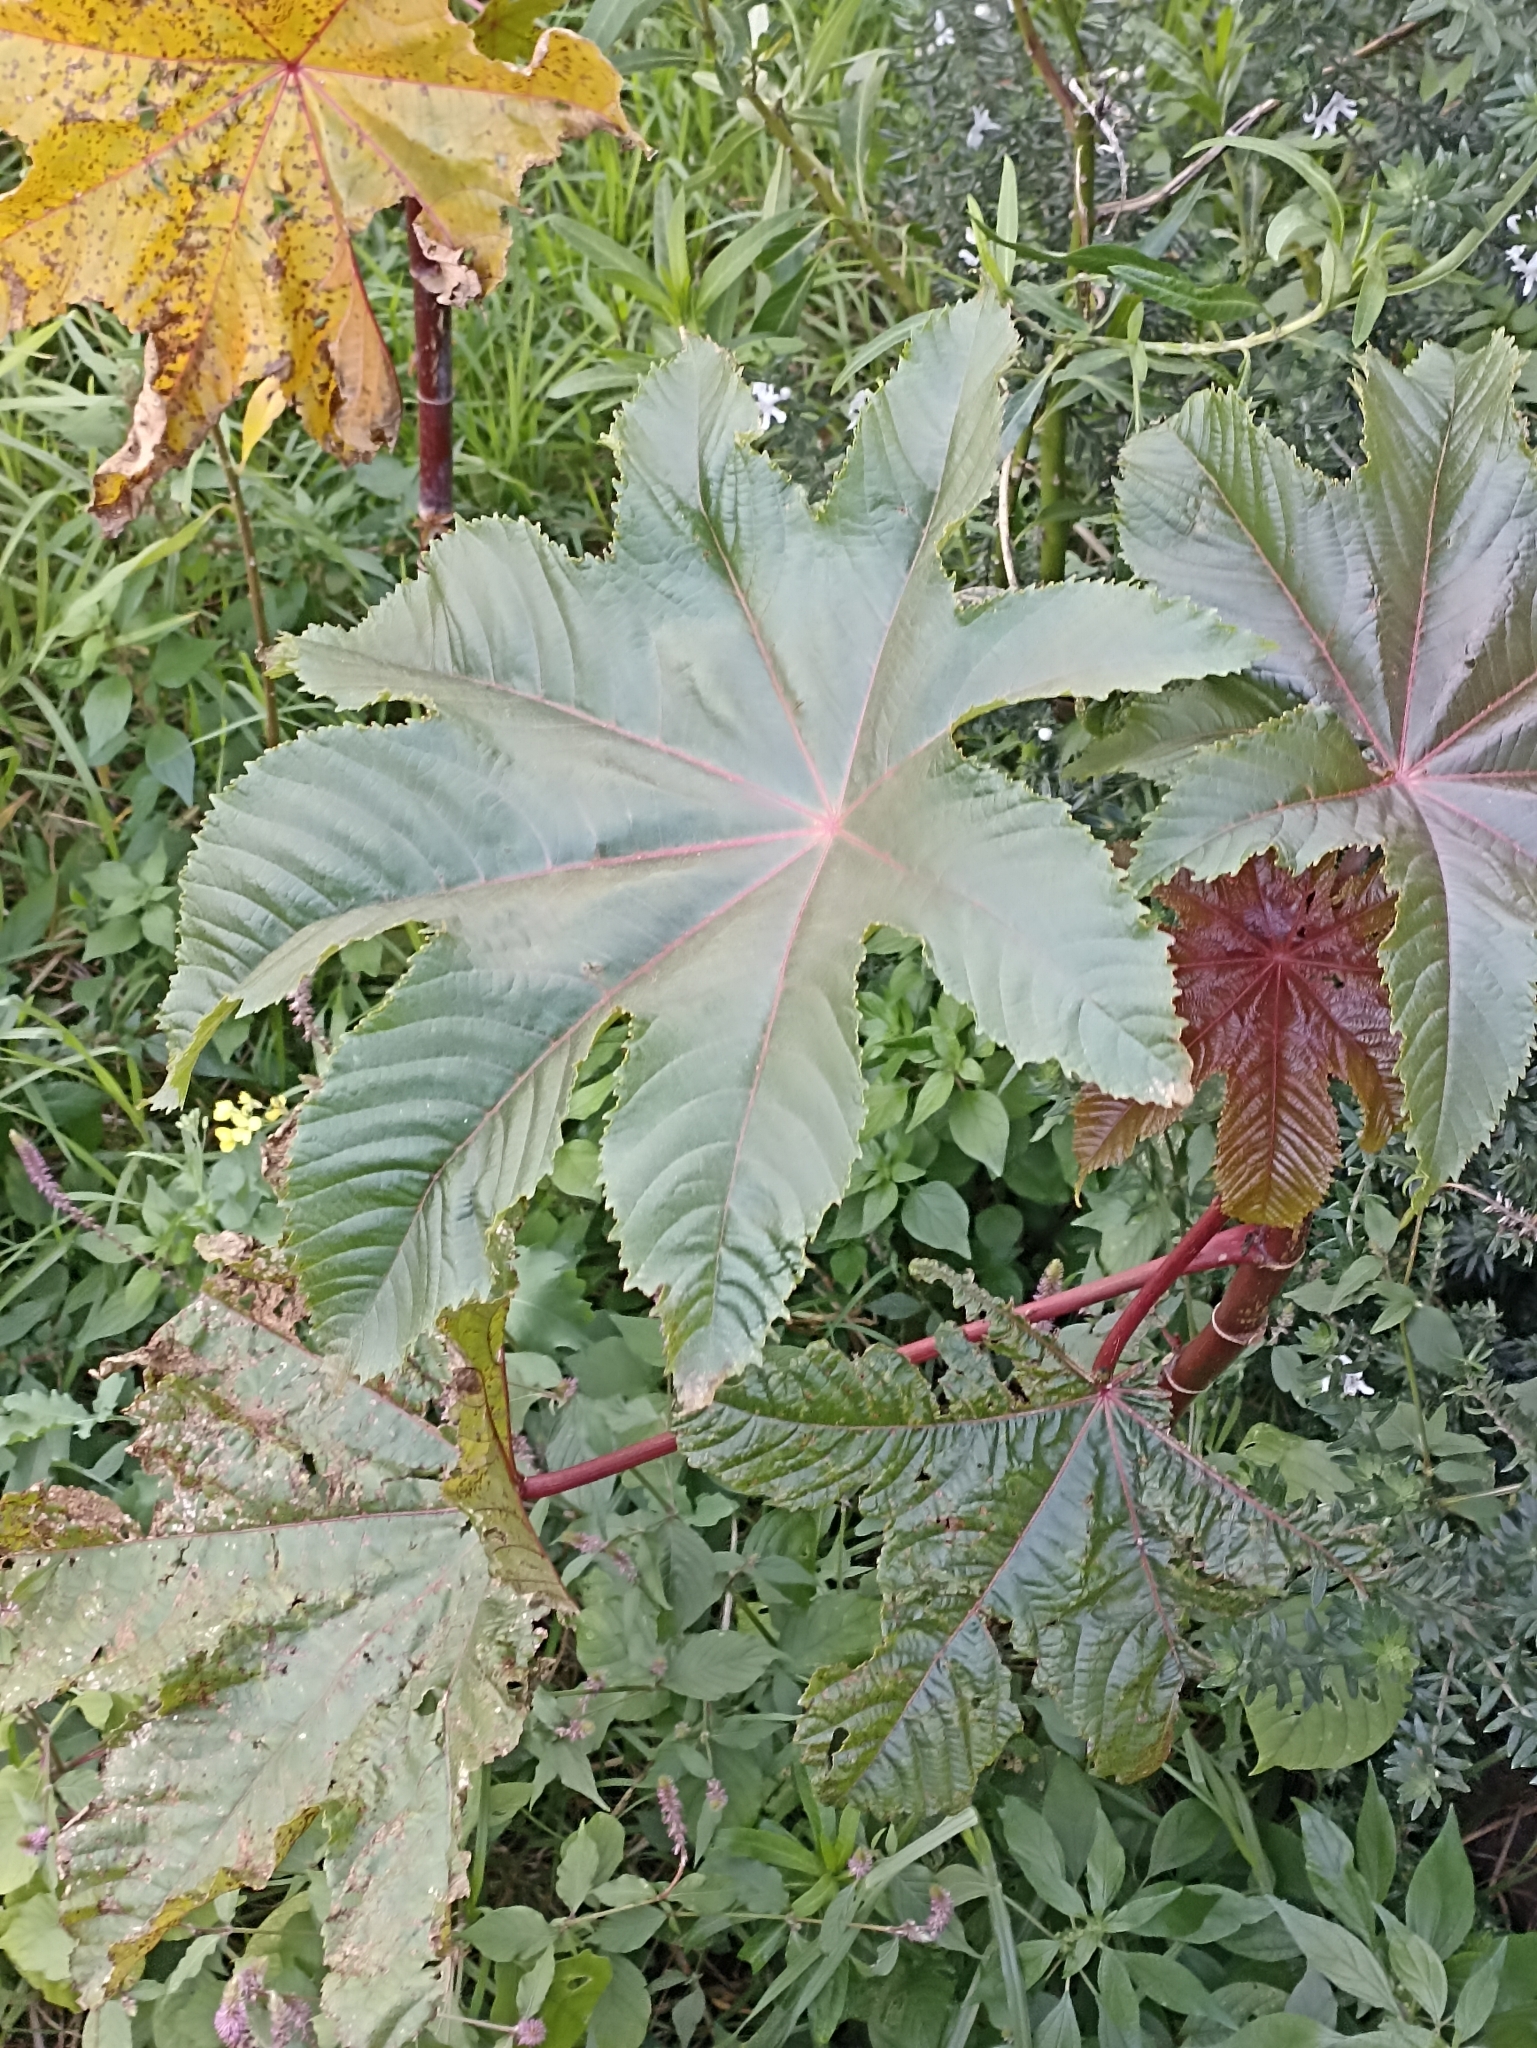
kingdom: Plantae
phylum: Tracheophyta
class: Magnoliopsida
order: Malpighiales
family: Euphorbiaceae
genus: Ricinus
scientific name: Ricinus communis
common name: Castor-oil-plant
